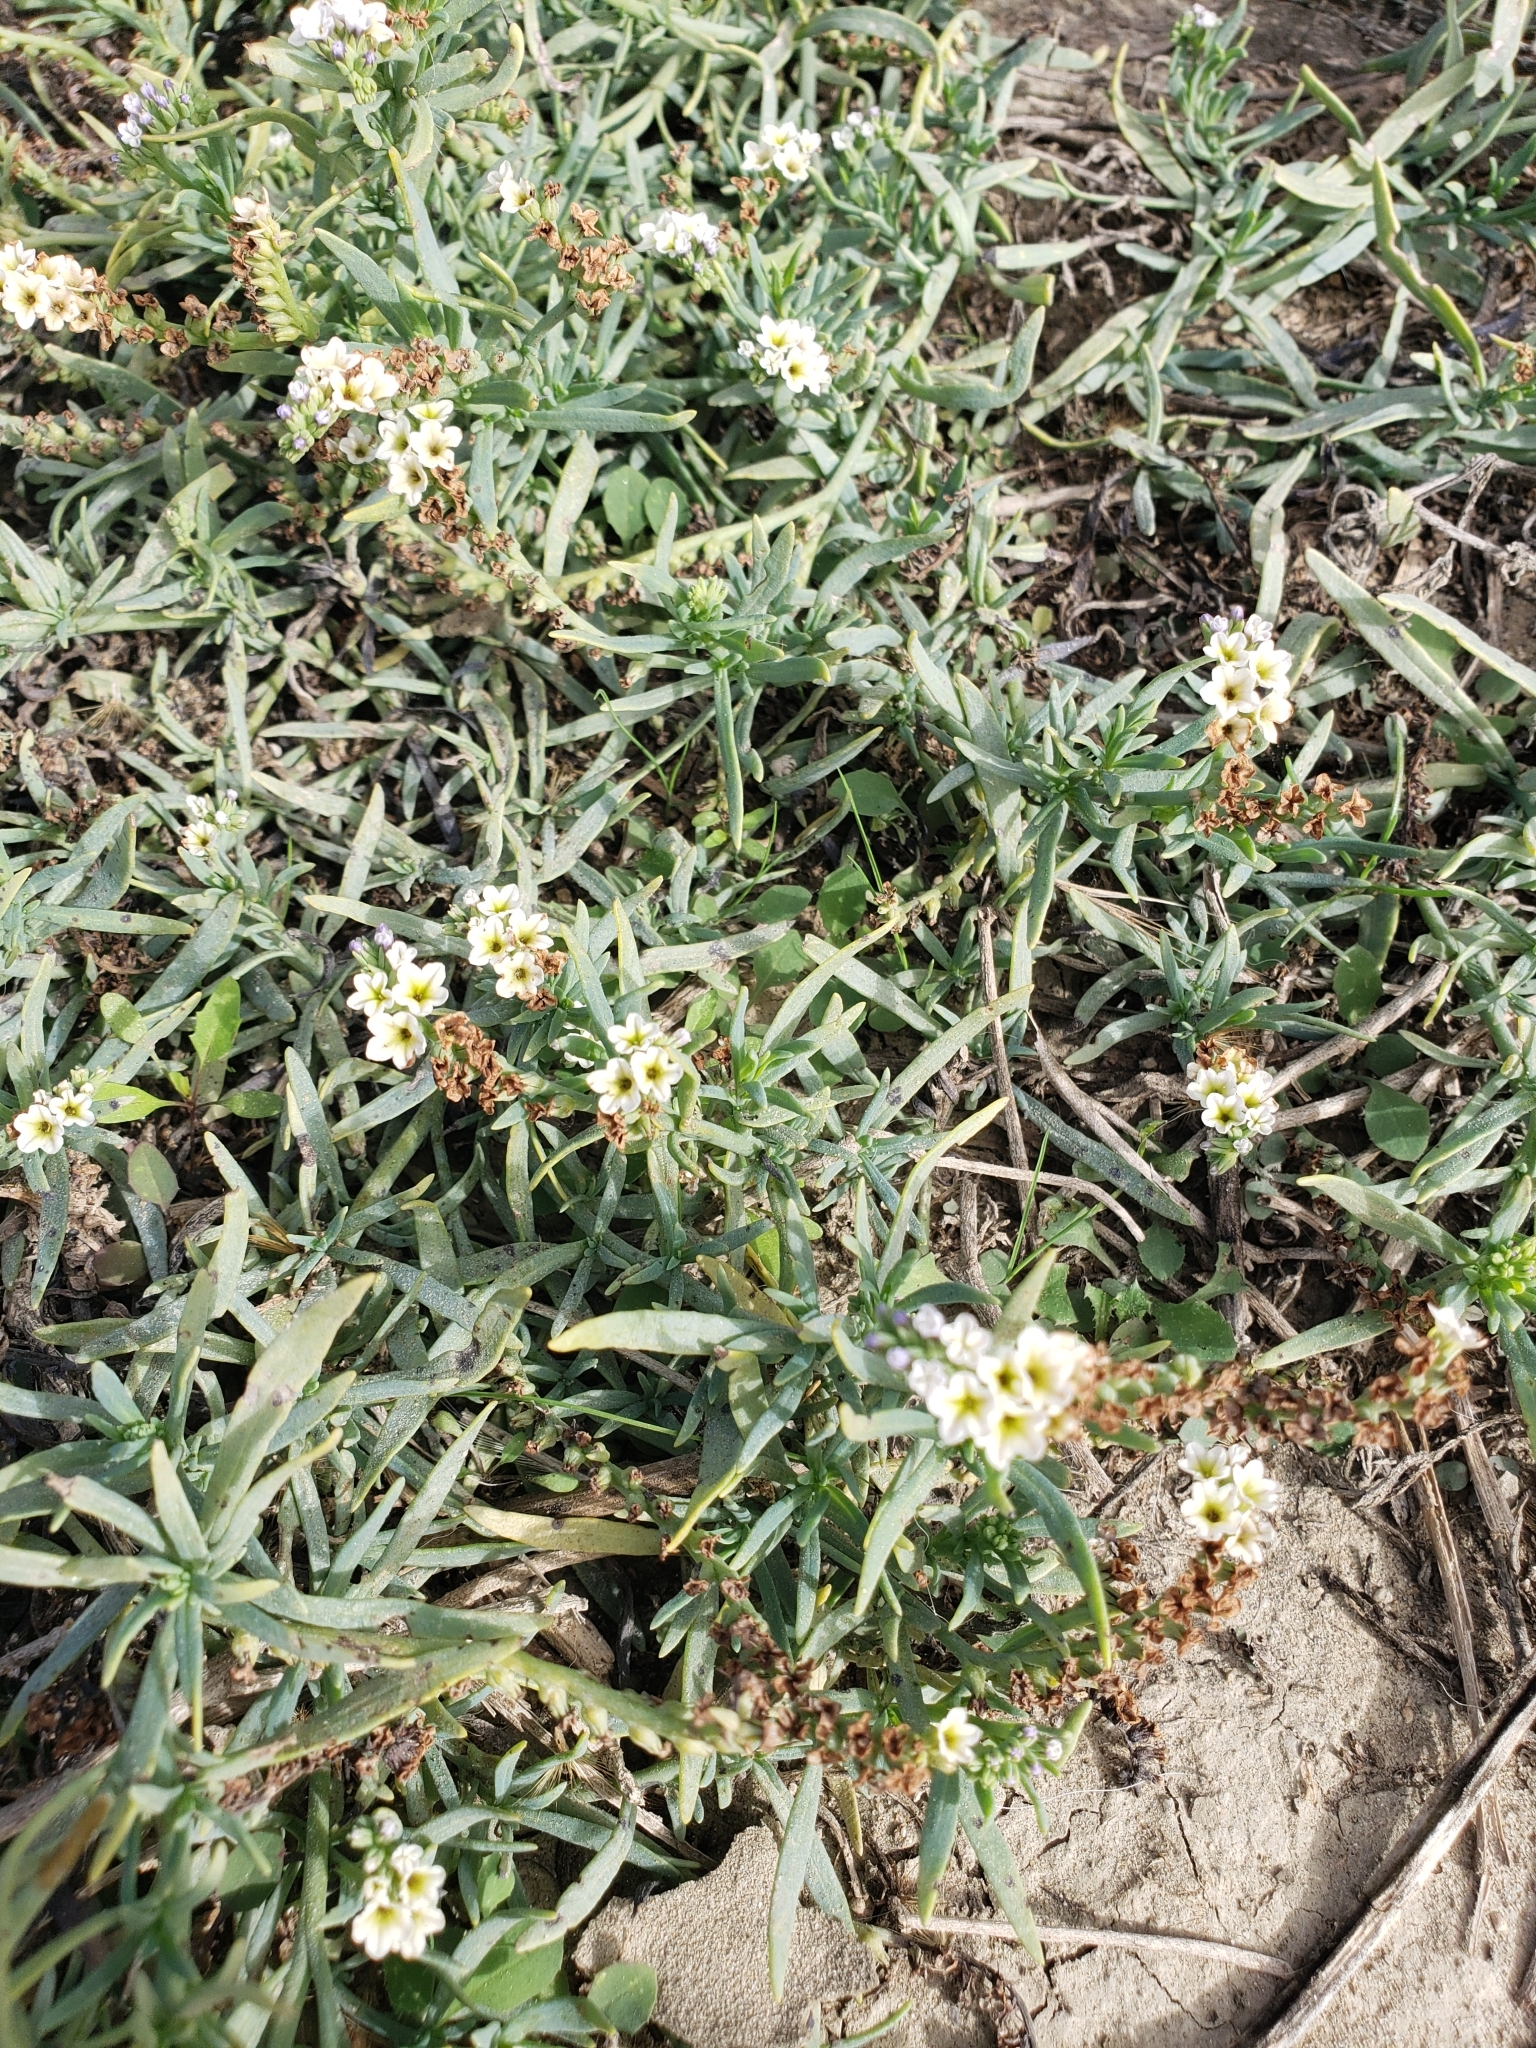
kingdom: Plantae
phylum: Tracheophyta
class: Magnoliopsida
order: Boraginales
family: Heliotropiaceae
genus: Heliotropium
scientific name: Heliotropium curassavicum
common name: Seaside heliotrope
